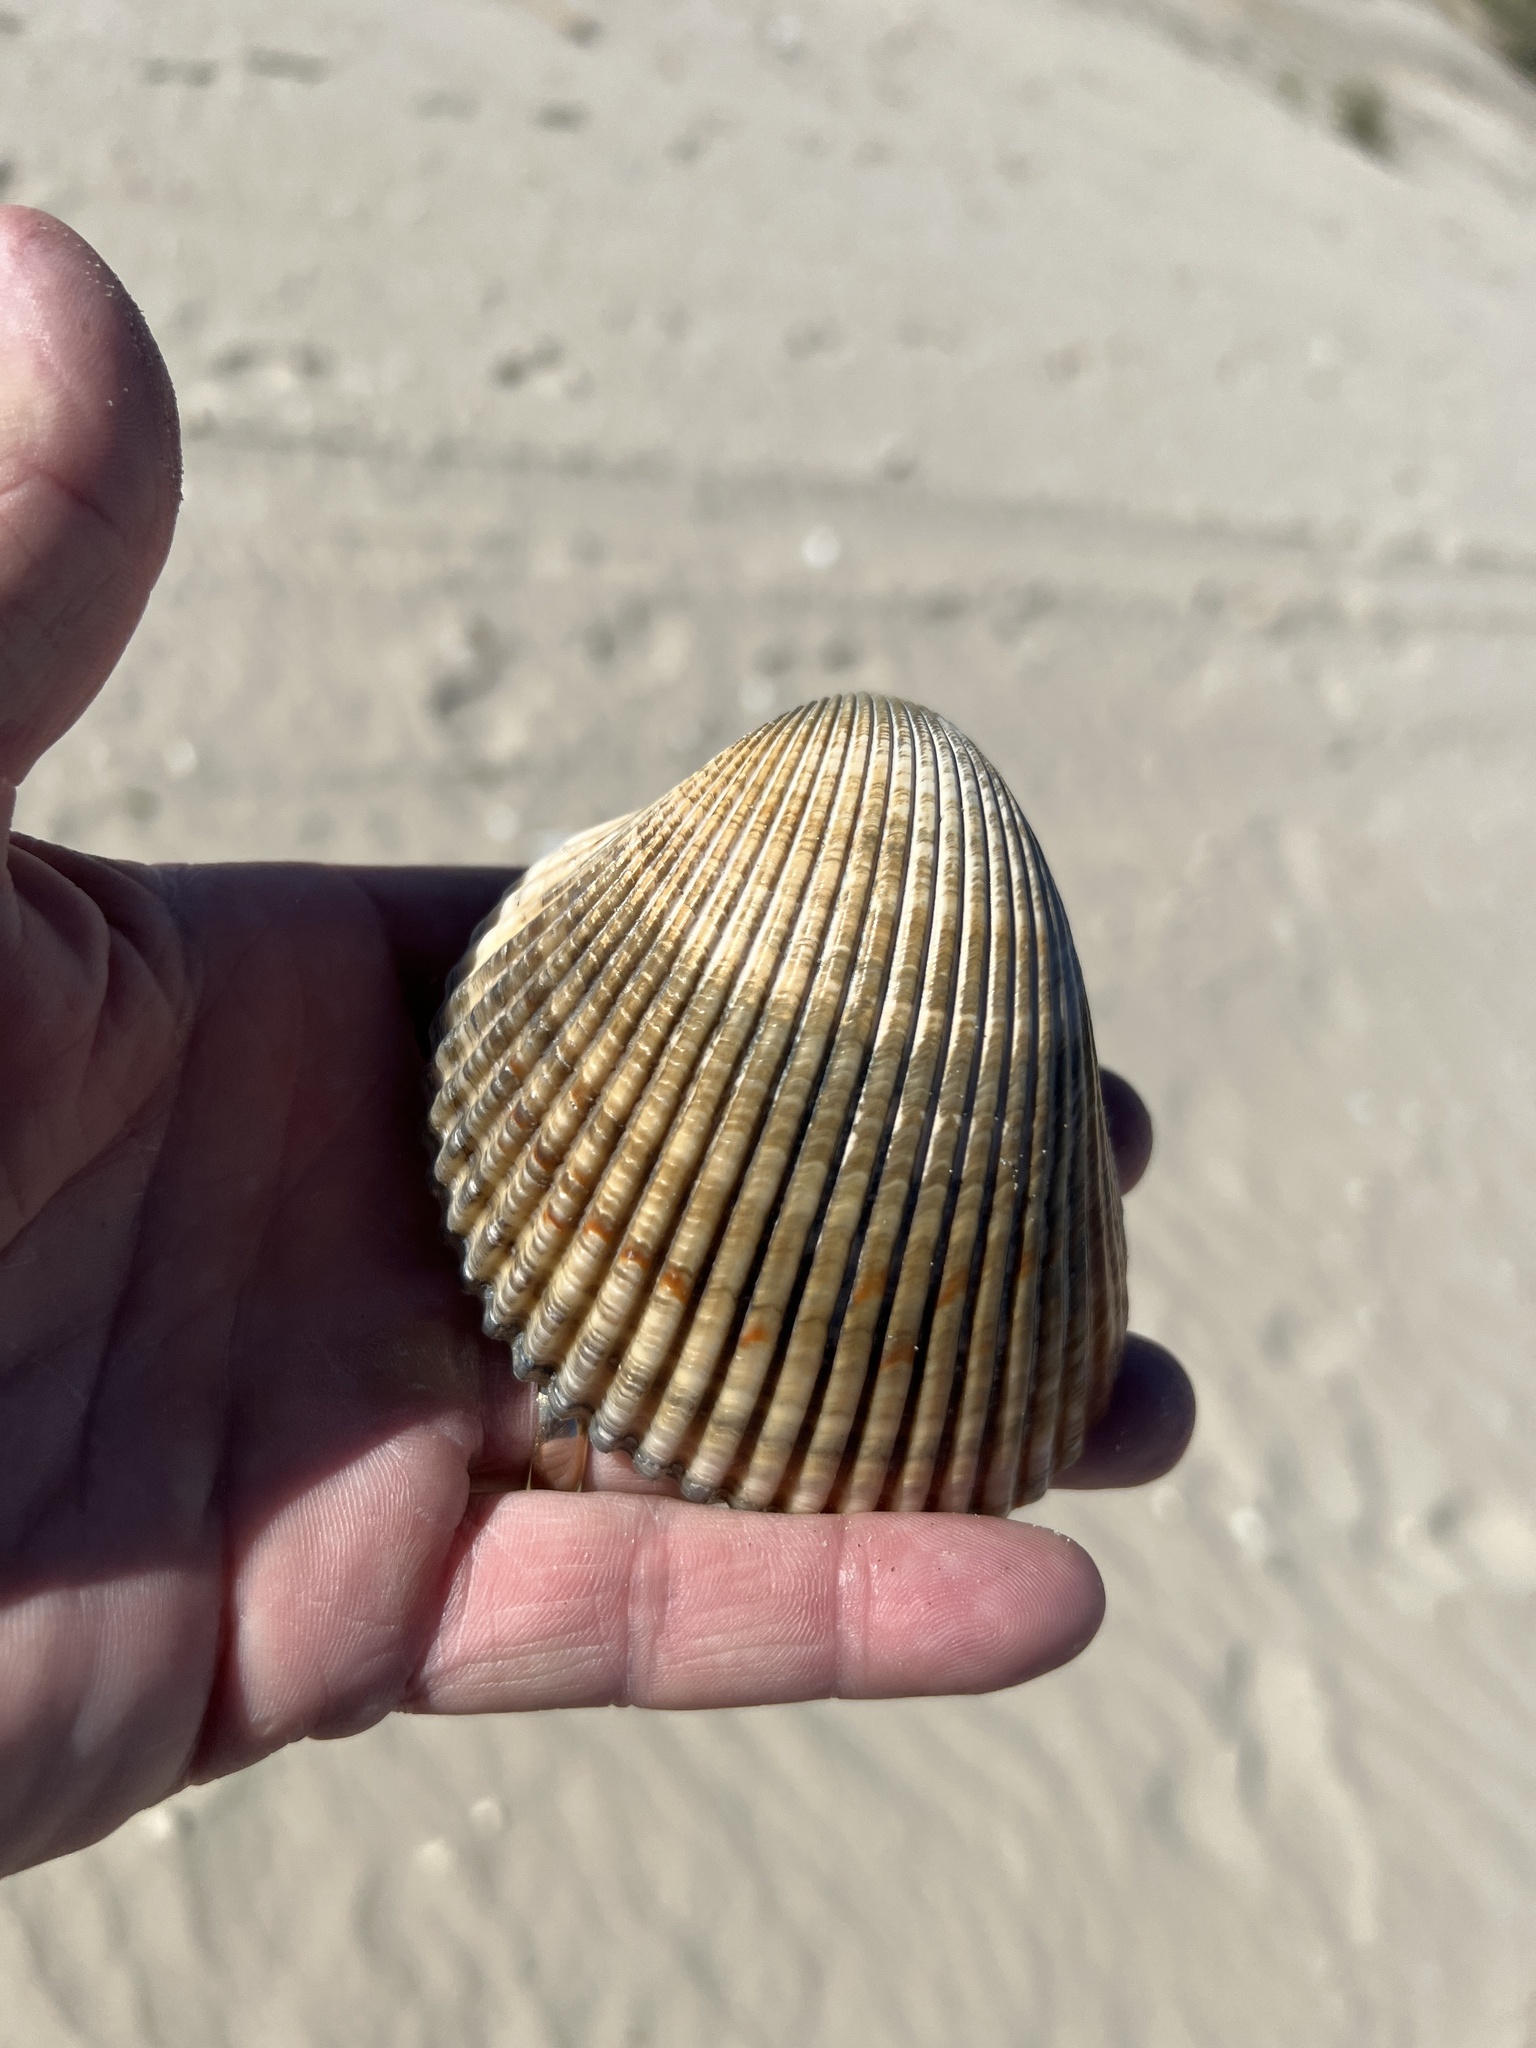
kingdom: Animalia
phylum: Mollusca
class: Bivalvia
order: Cardiida
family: Cardiidae
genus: Dinocardium
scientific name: Dinocardium robustum
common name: Atlantic giant cockle
